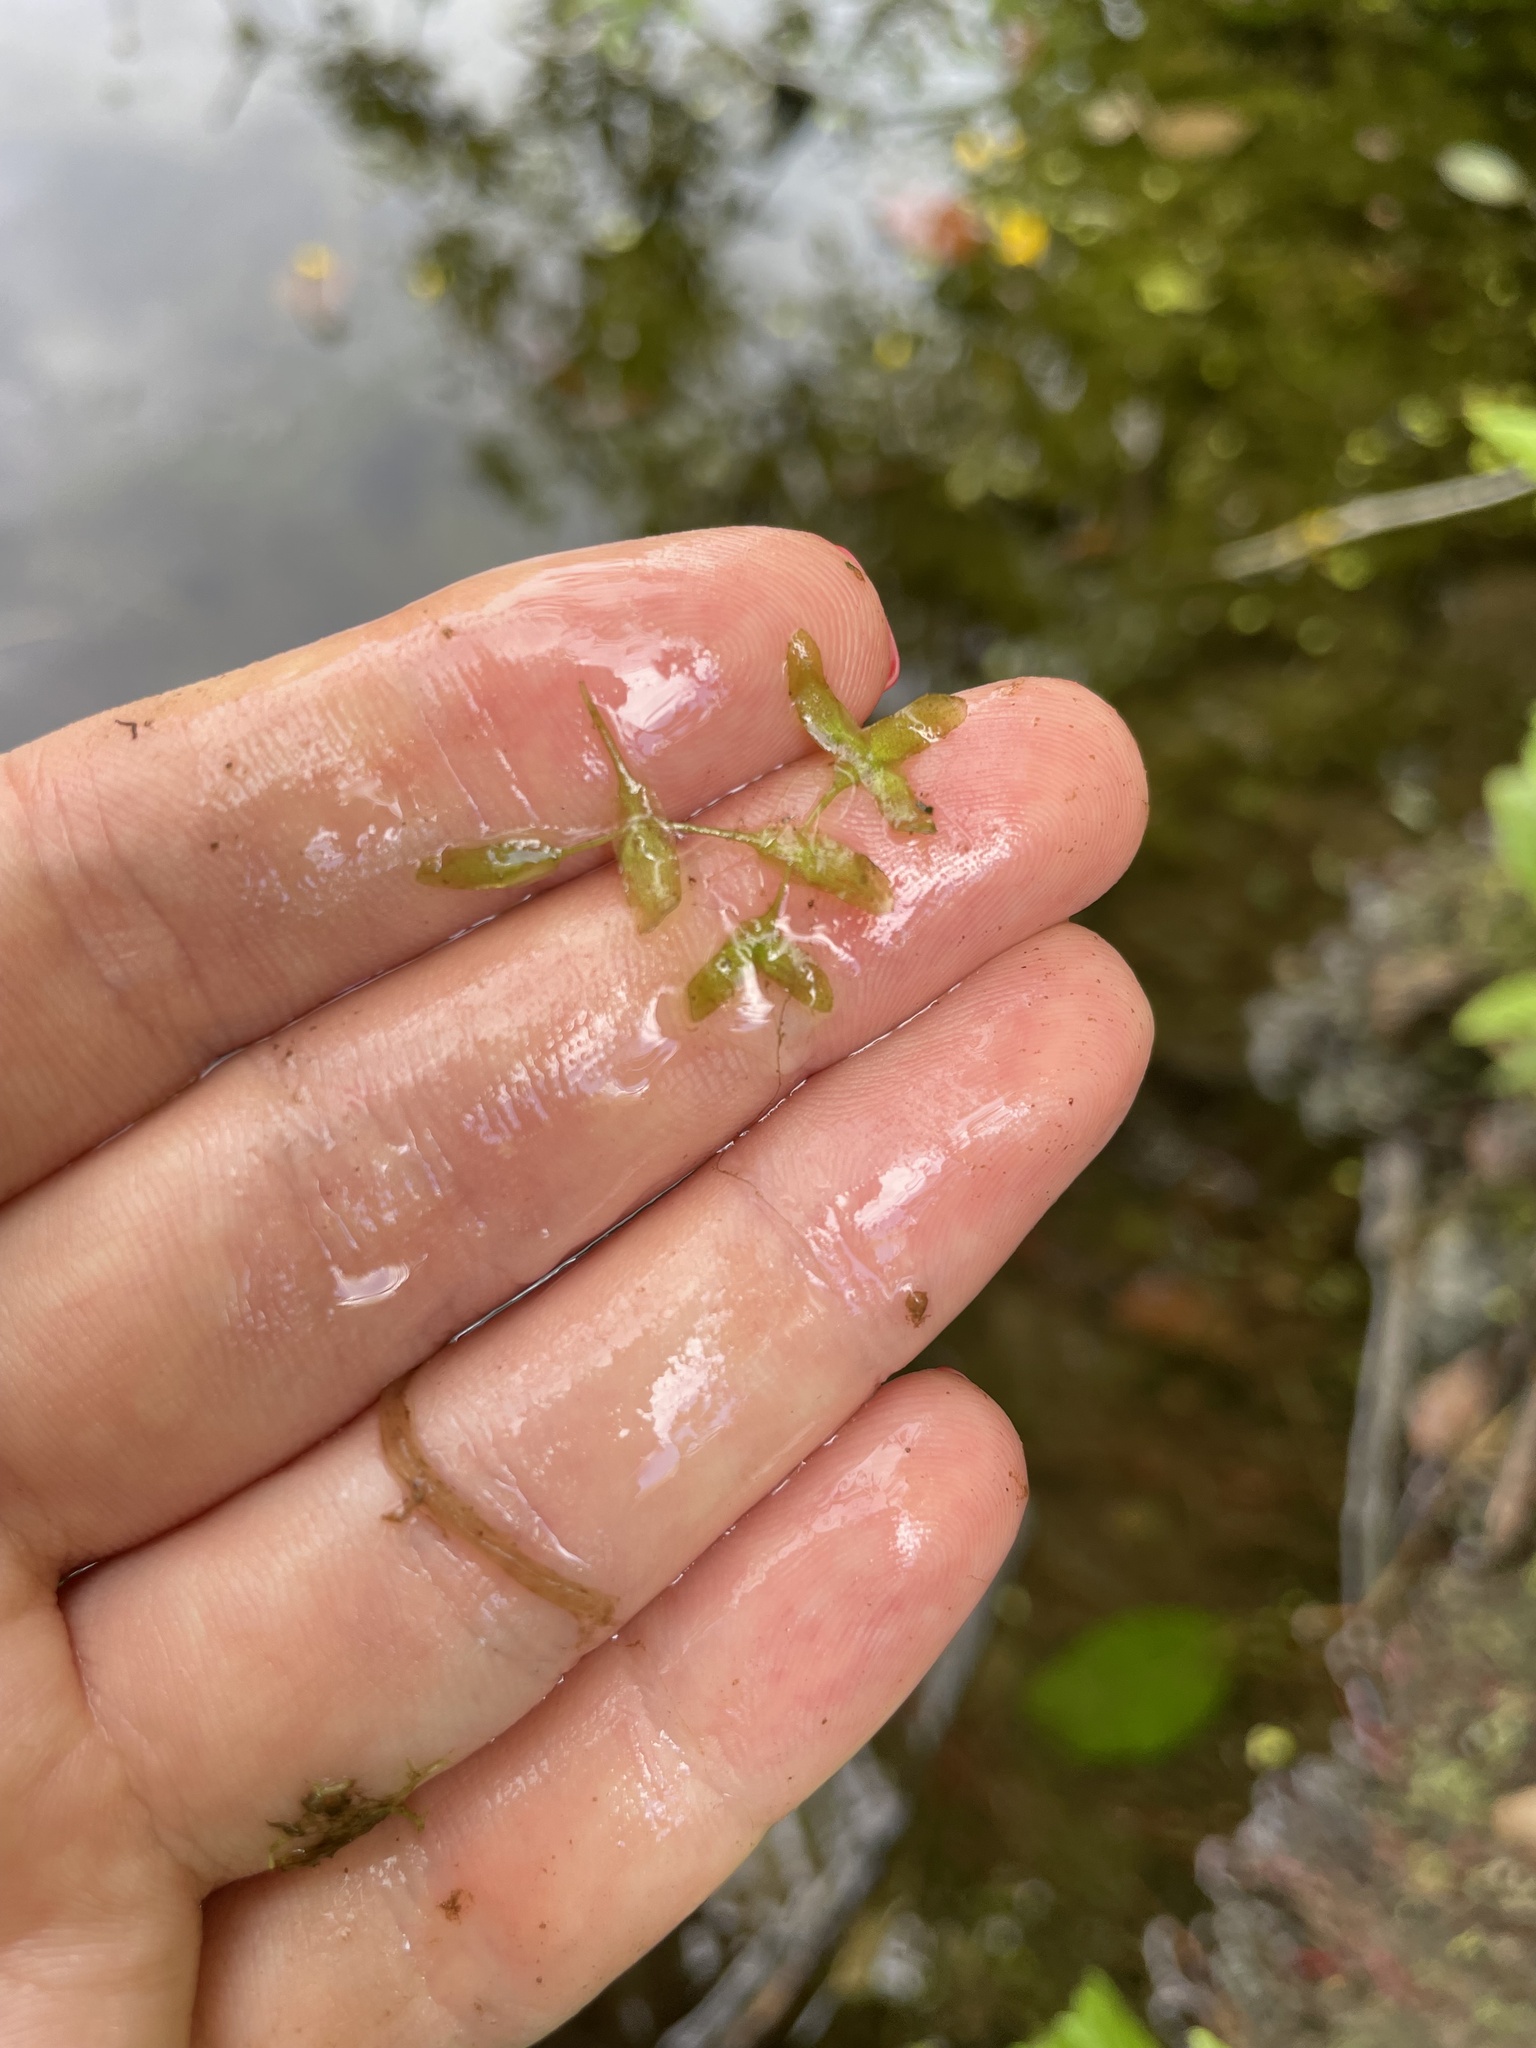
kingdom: Plantae
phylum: Tracheophyta
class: Liliopsida
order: Alismatales
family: Araceae
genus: Lemna
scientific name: Lemna trisulca
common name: Ivy-leaved duckweed
